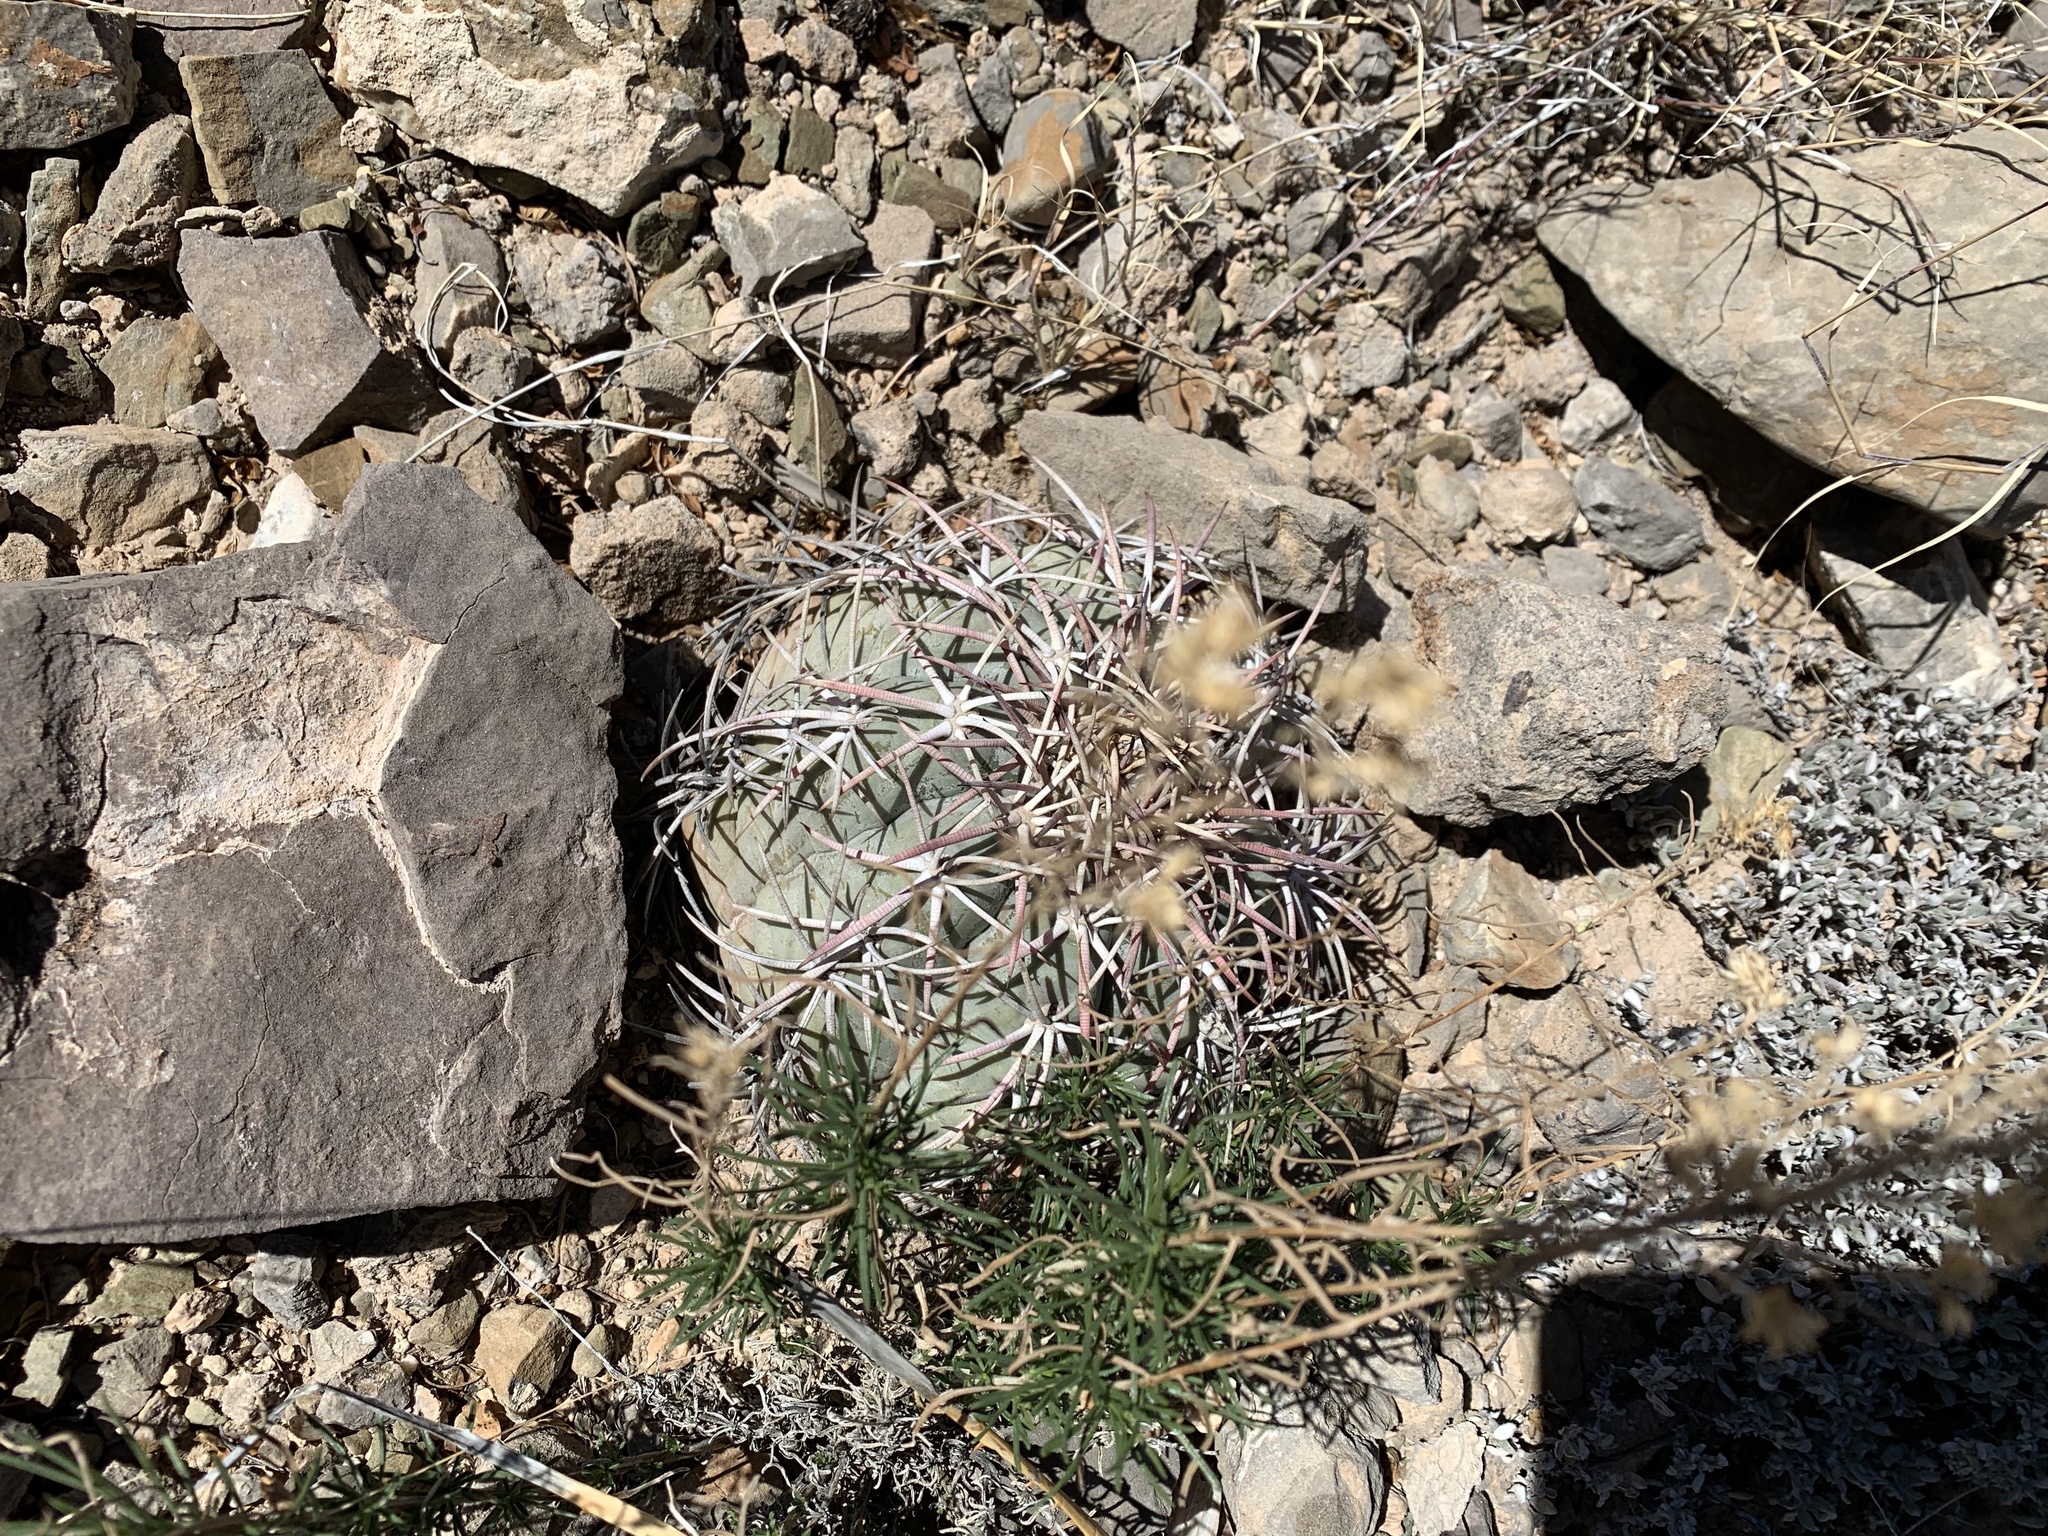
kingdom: Plantae
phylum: Tracheophyta
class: Magnoliopsida
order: Caryophyllales
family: Cactaceae
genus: Echinocactus
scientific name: Echinocactus horizonthalonius
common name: Devilshead
